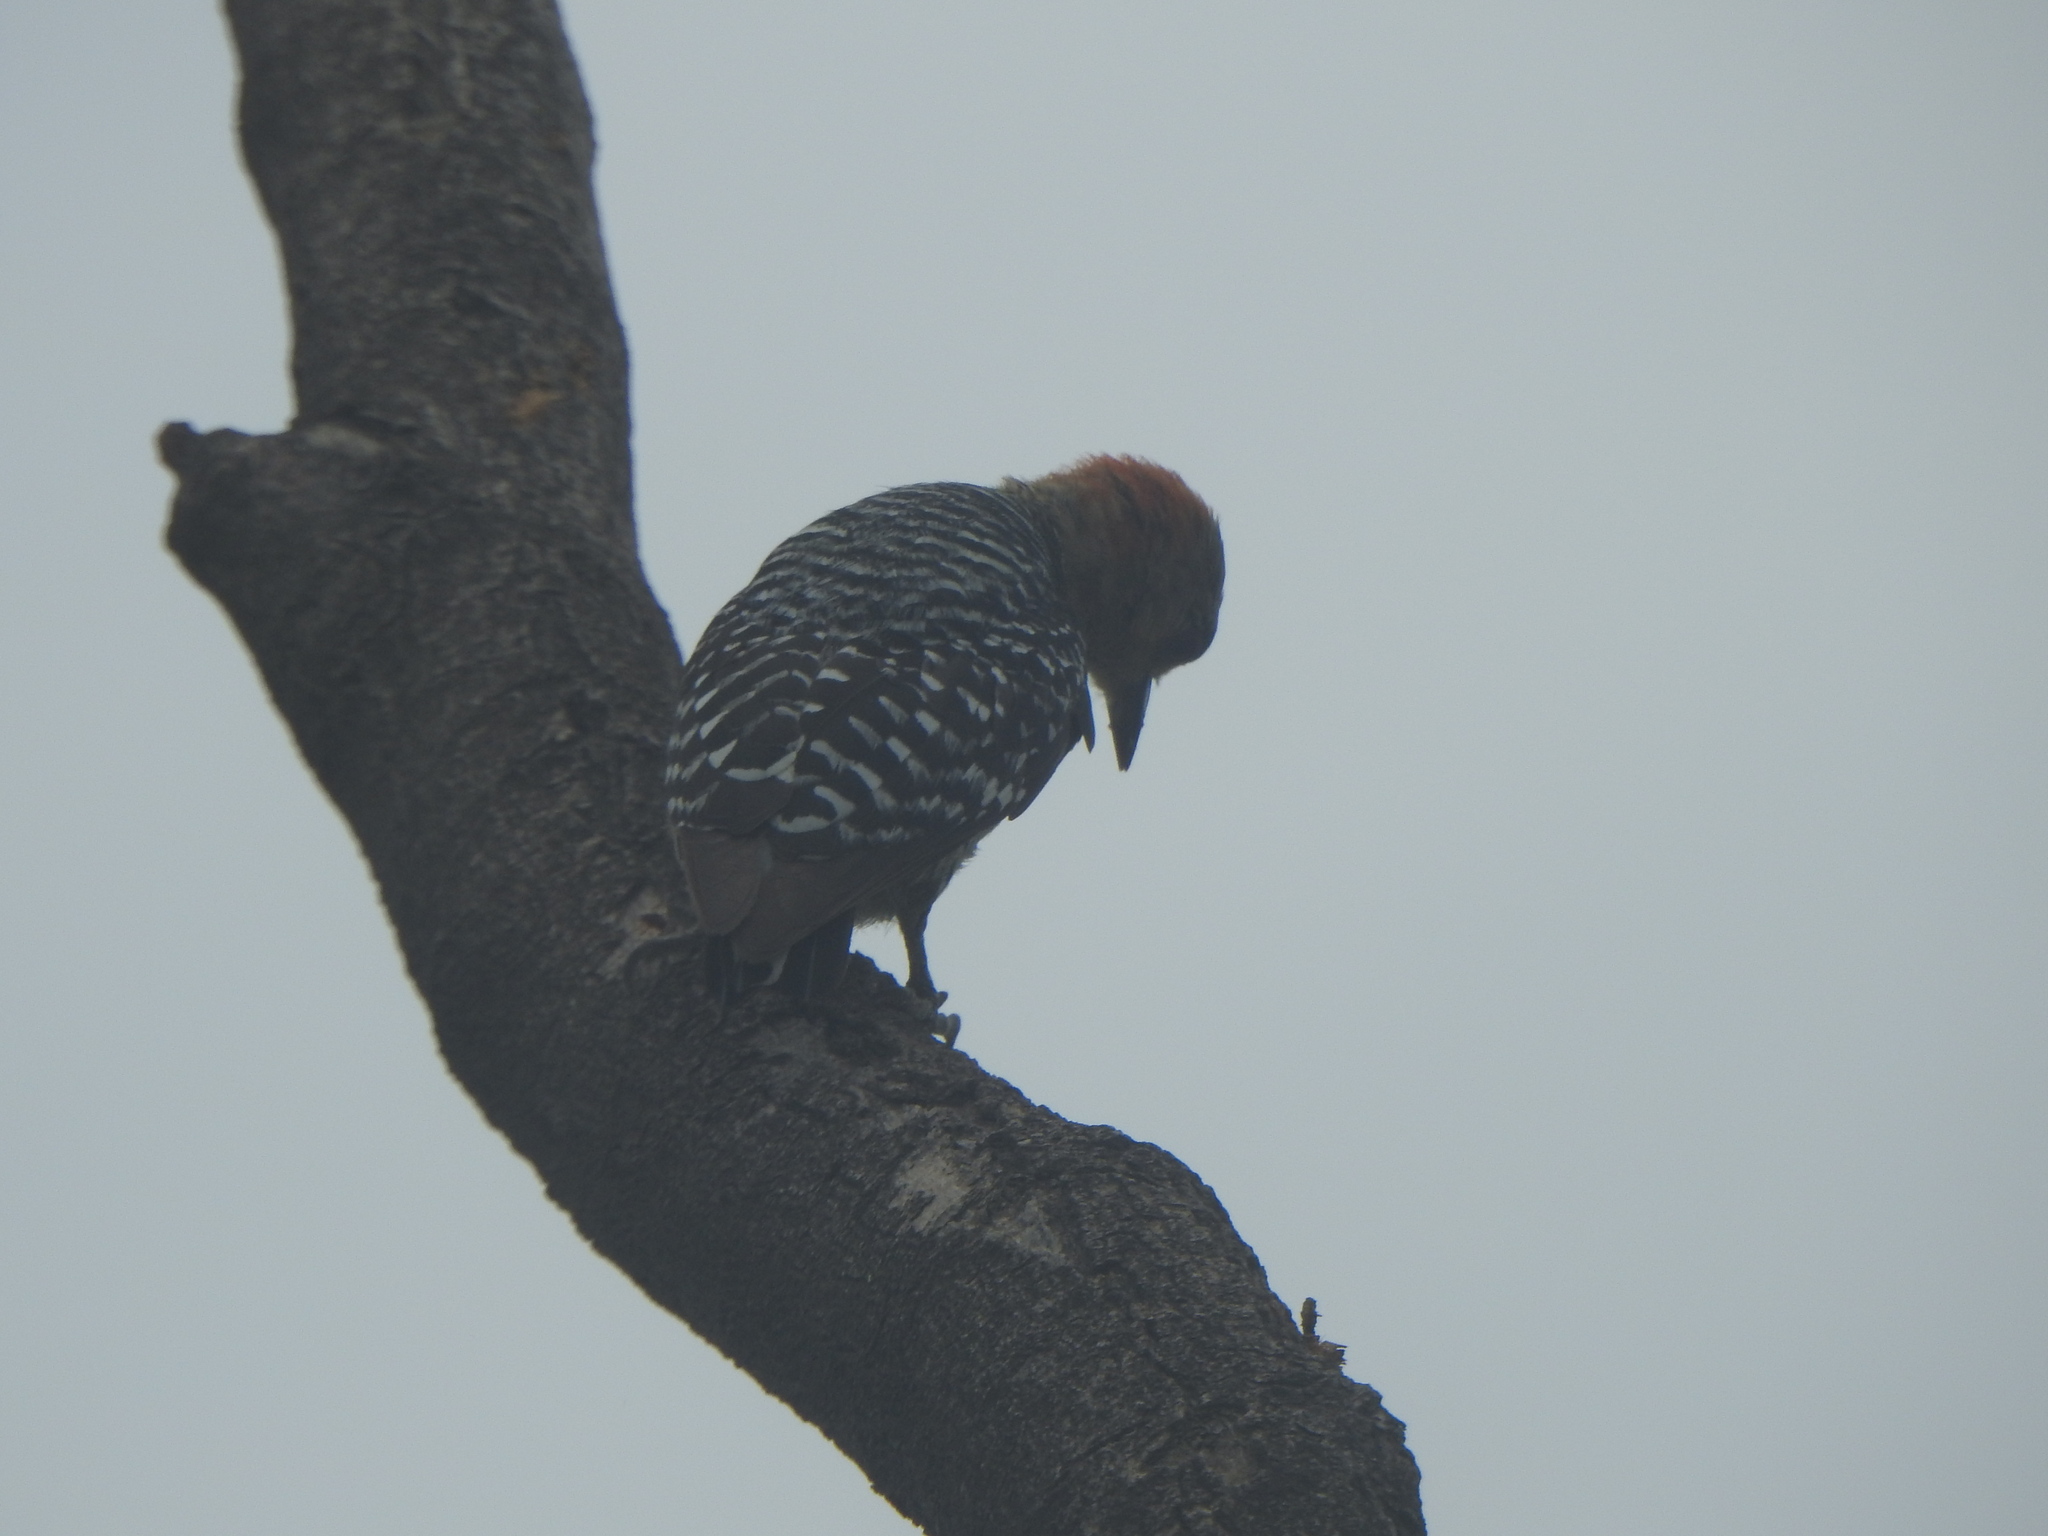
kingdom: Animalia
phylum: Chordata
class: Aves
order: Piciformes
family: Picidae
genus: Melanerpes
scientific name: Melanerpes rubricapillus
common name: Red-crowned woodpecker
